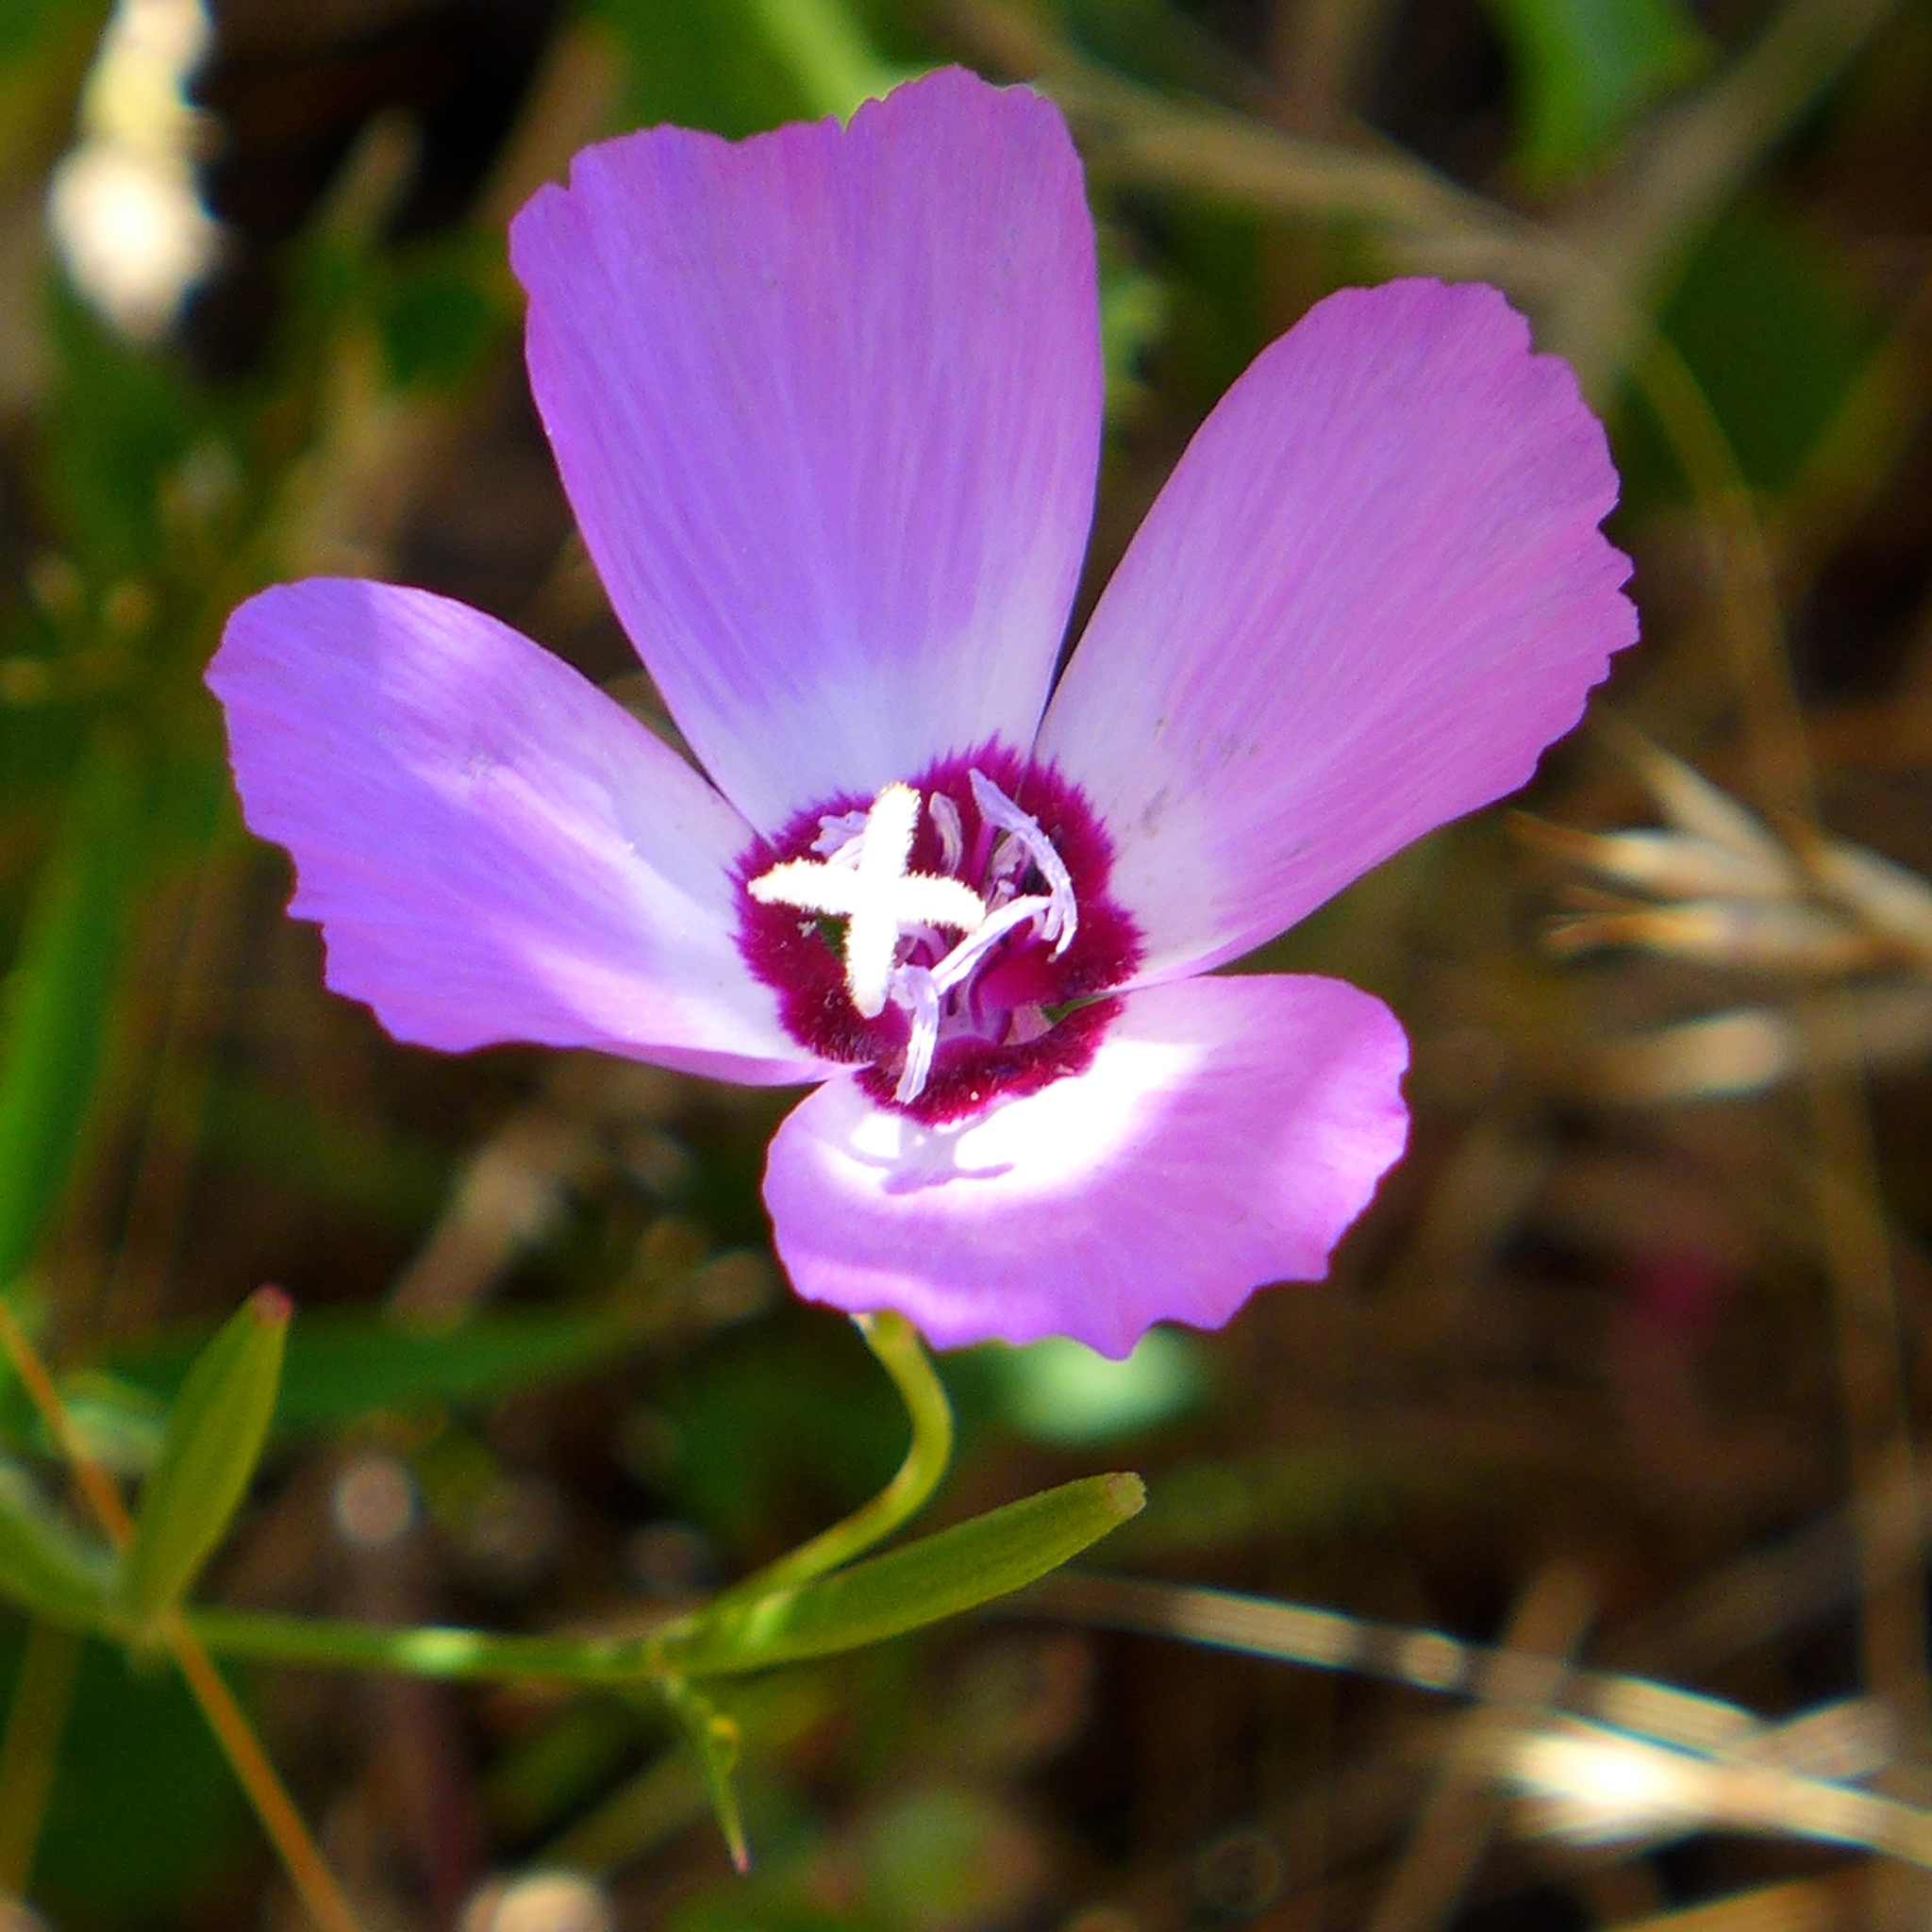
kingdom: Plantae
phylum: Tracheophyta
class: Magnoliopsida
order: Myrtales
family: Onagraceae
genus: Clarkia
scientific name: Clarkia lewisii
